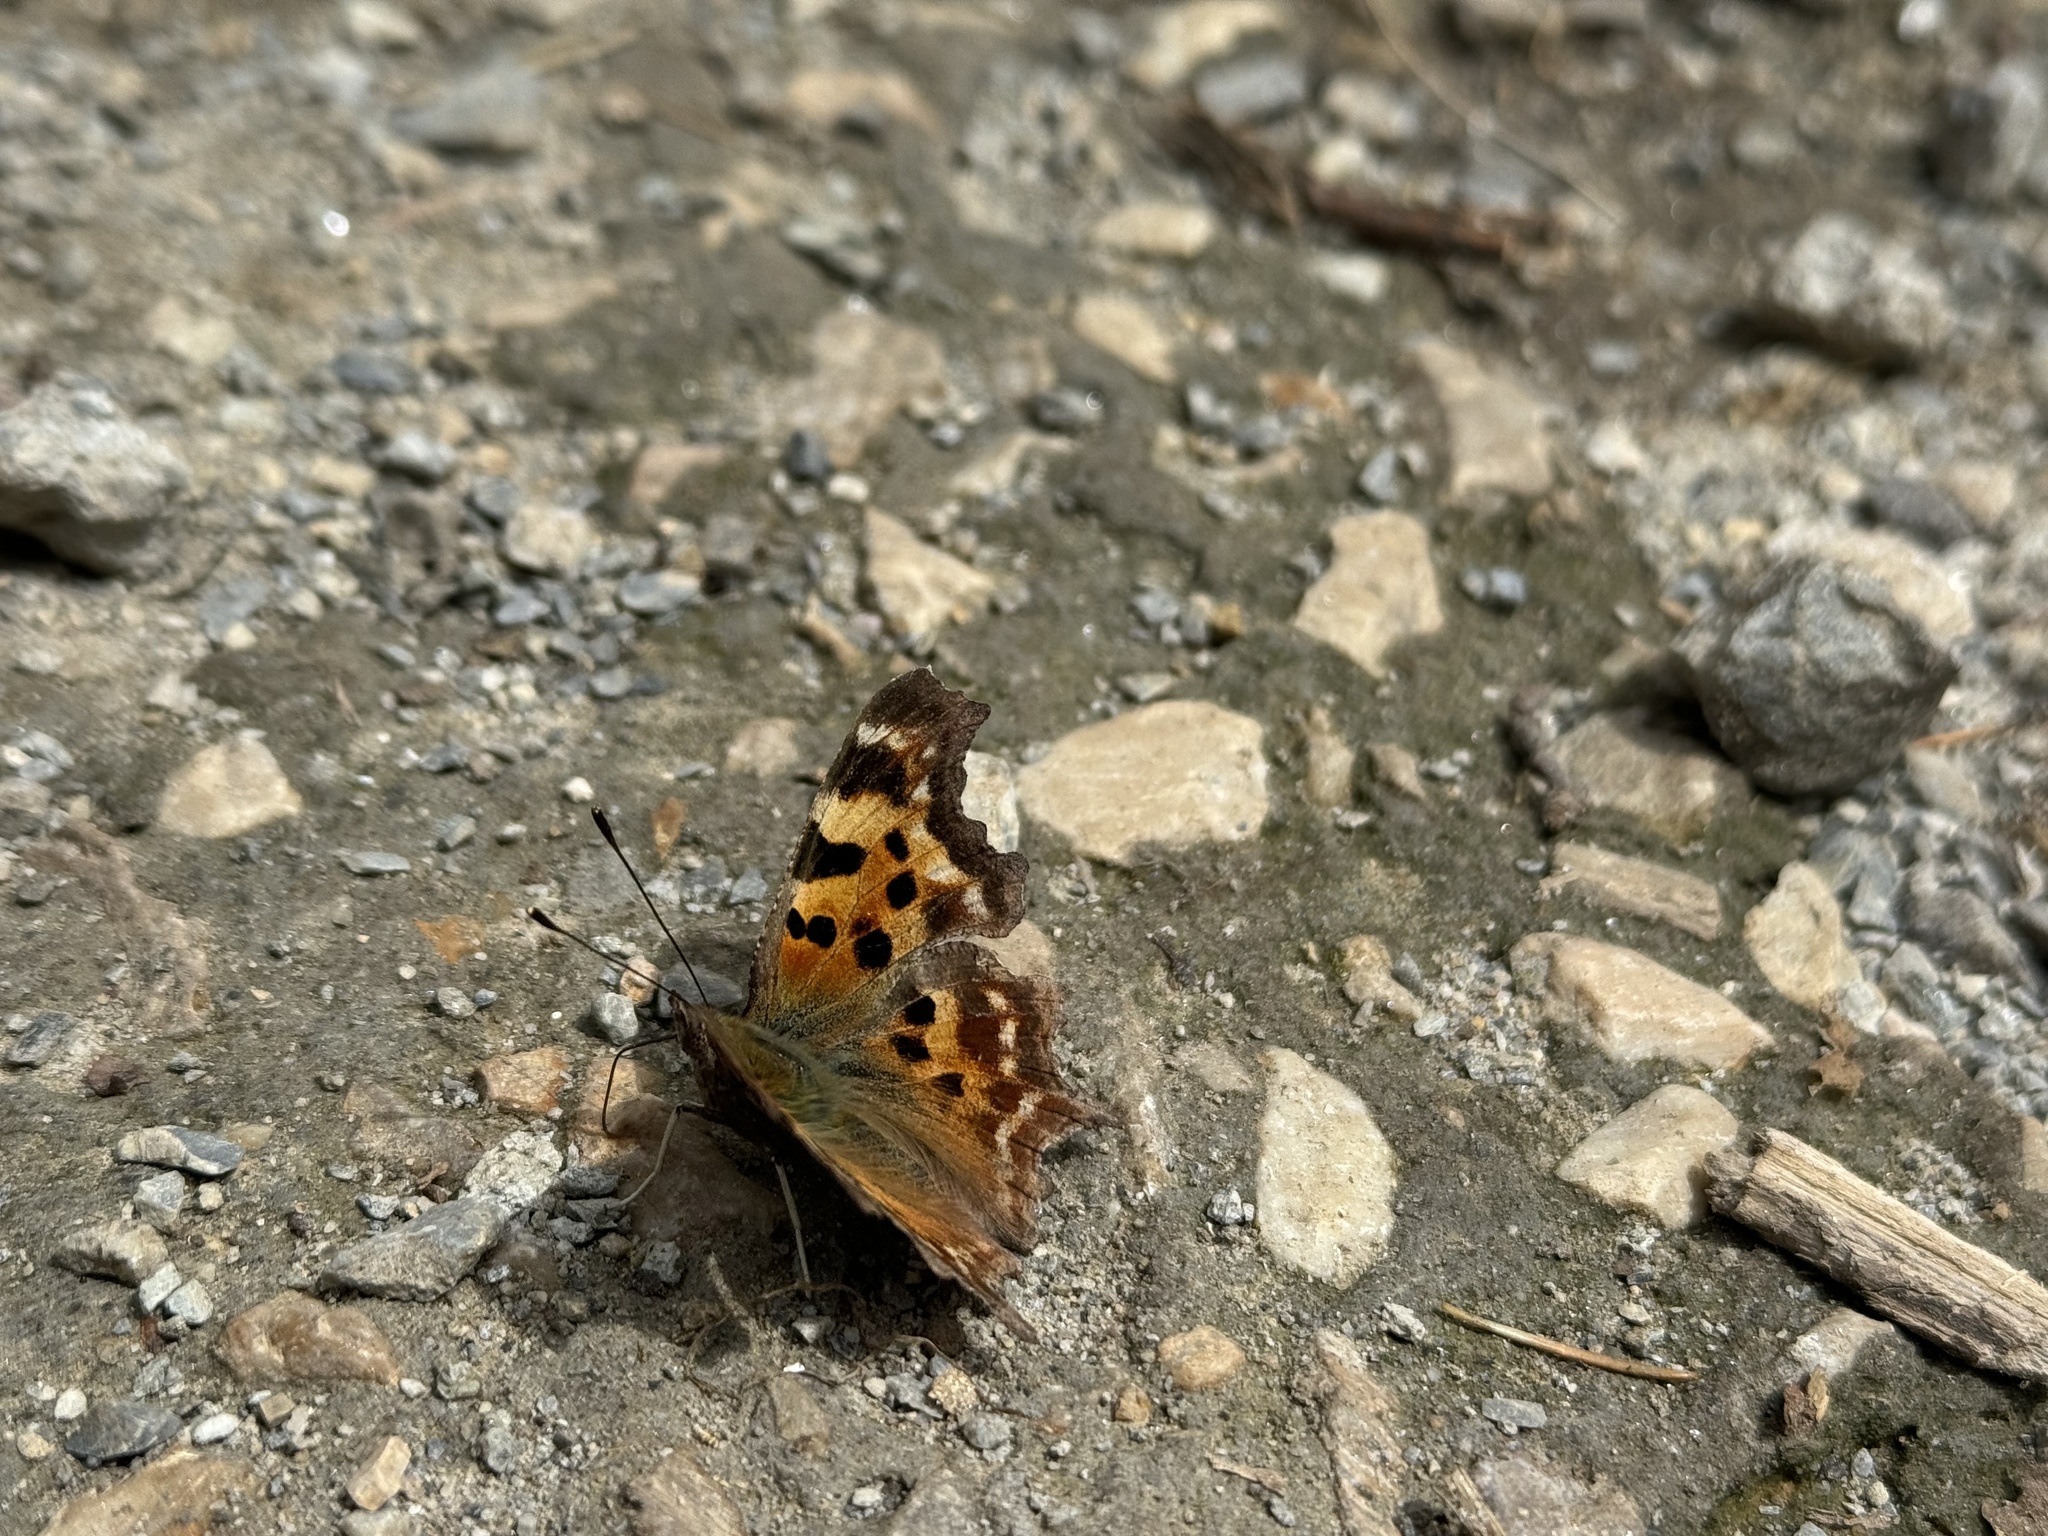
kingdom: Animalia
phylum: Arthropoda
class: Insecta
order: Lepidoptera
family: Nymphalidae
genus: Polygonia
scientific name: Polygonia c-album
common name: Comma
